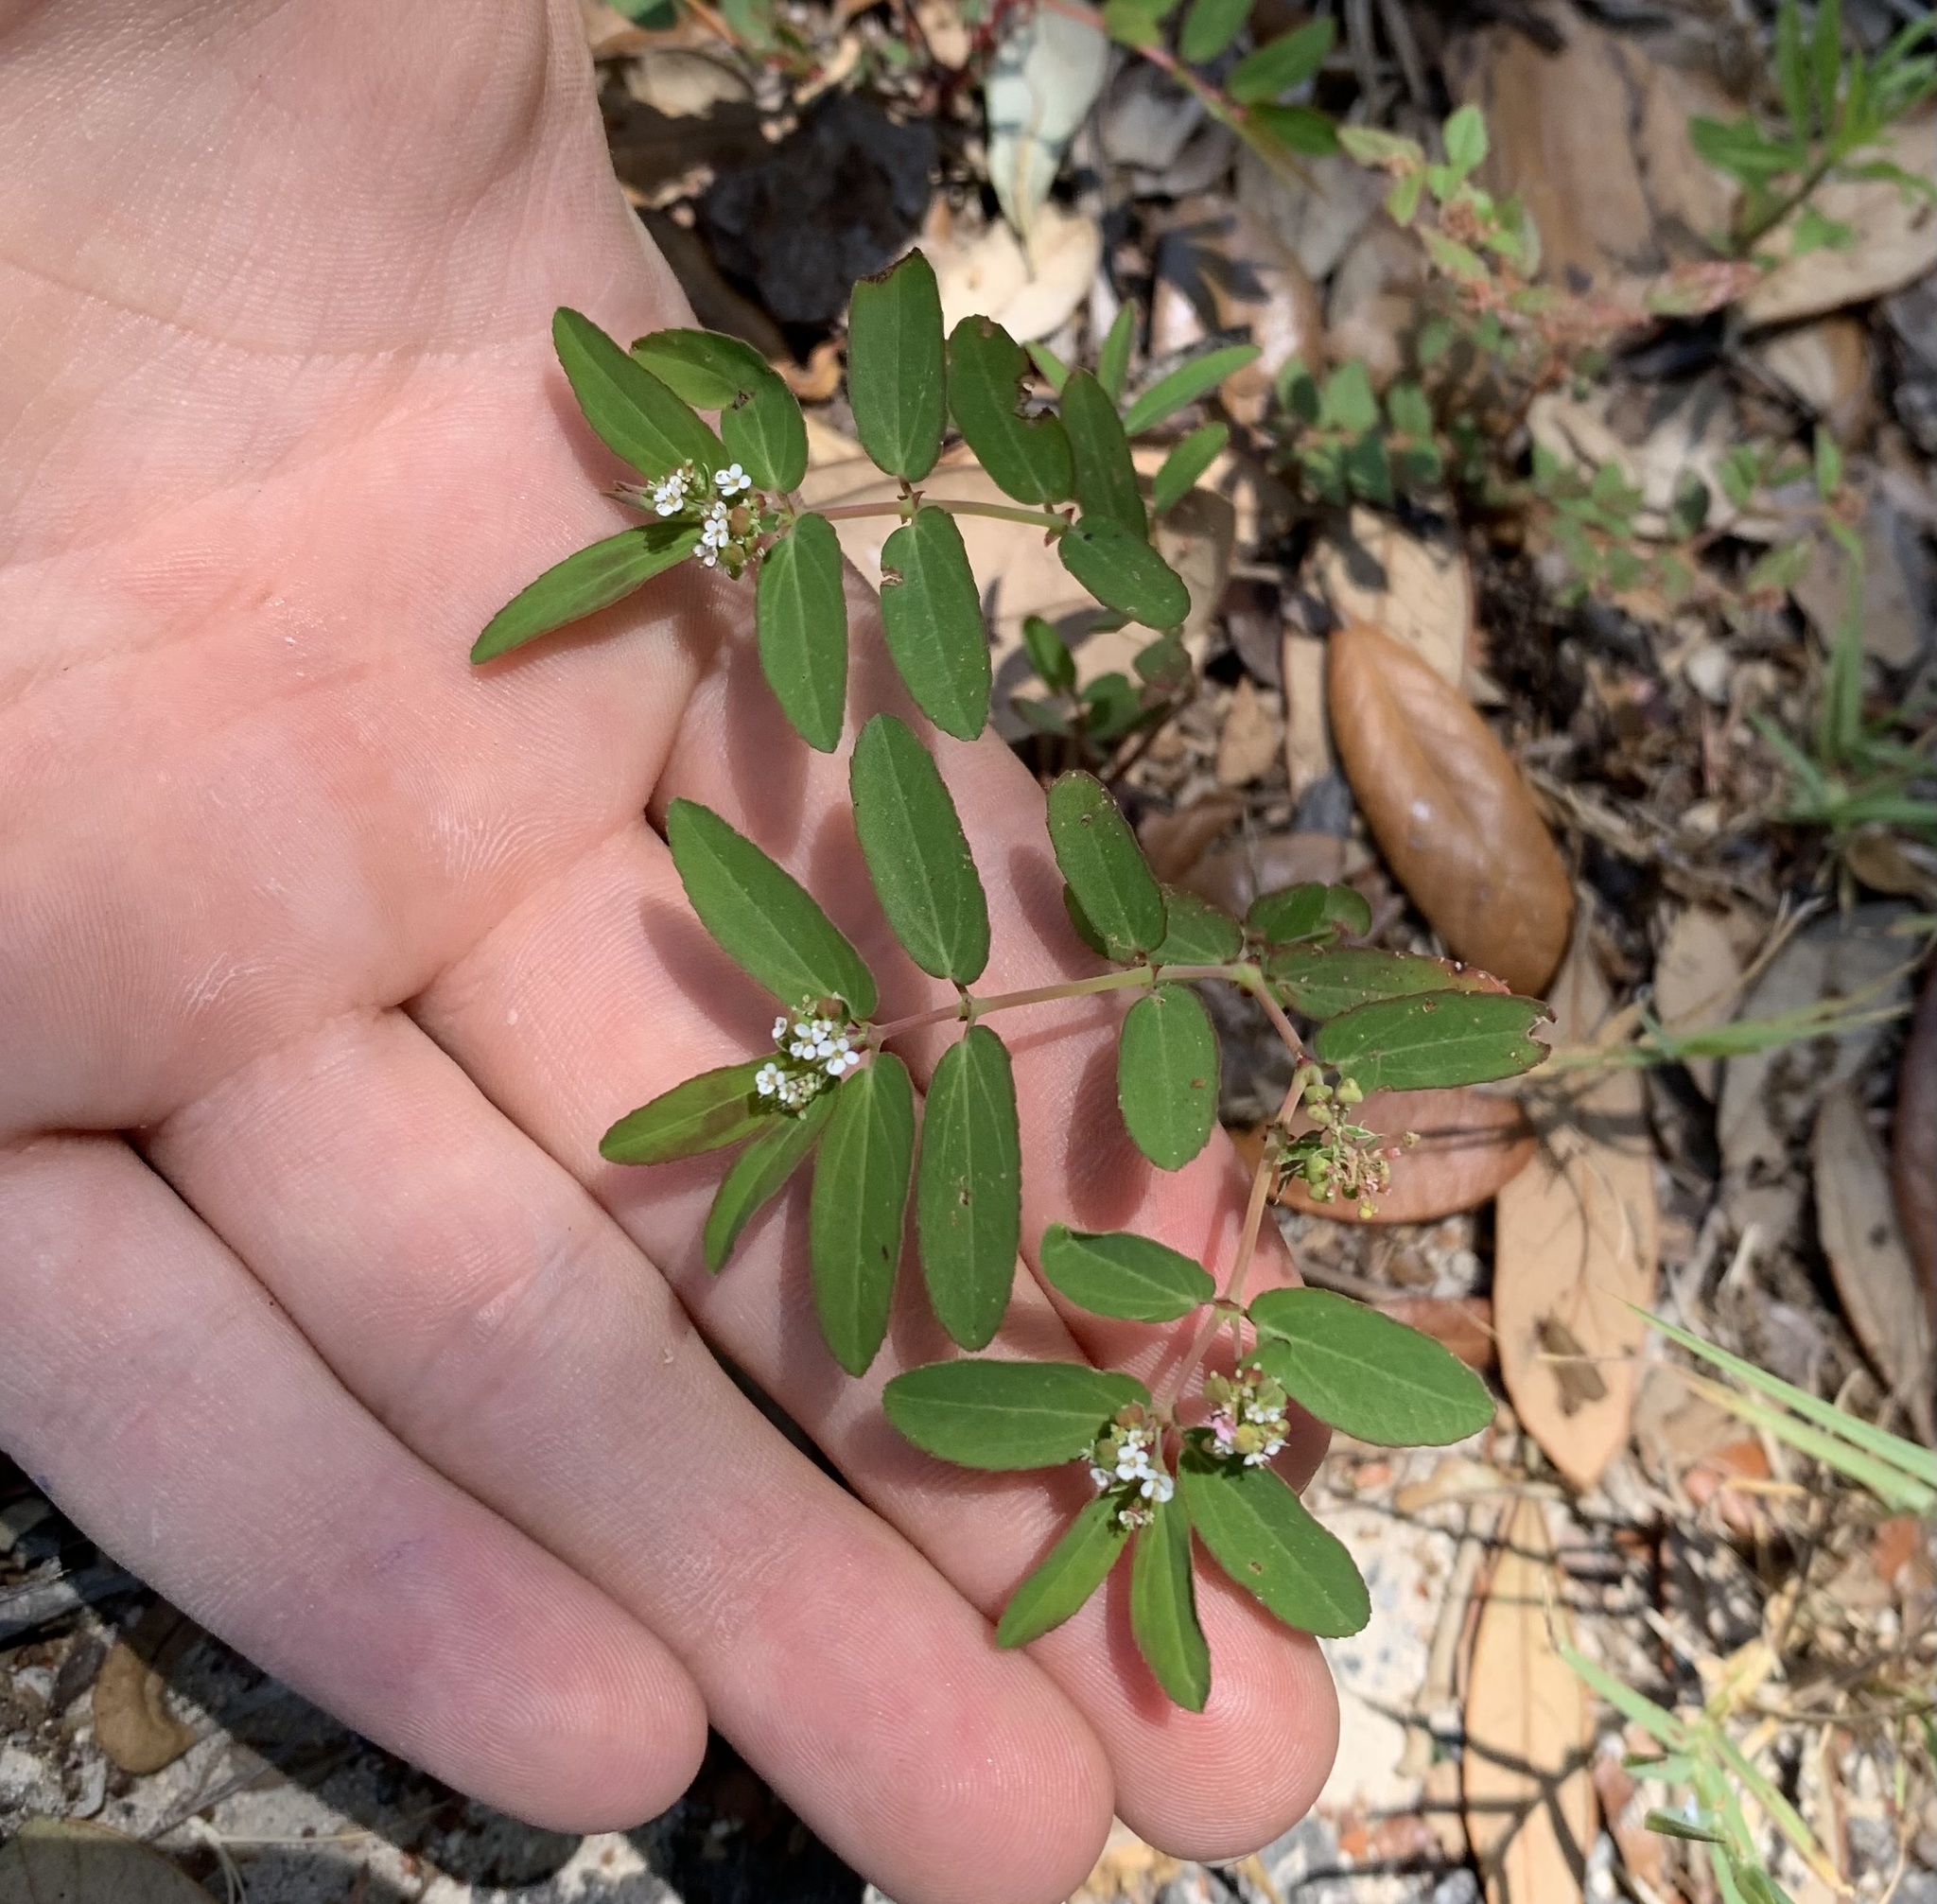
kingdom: Plantae
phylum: Tracheophyta
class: Magnoliopsida
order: Malpighiales
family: Euphorbiaceae
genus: Euphorbia
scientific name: Euphorbia hypericifolia
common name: Graceful sandmat
